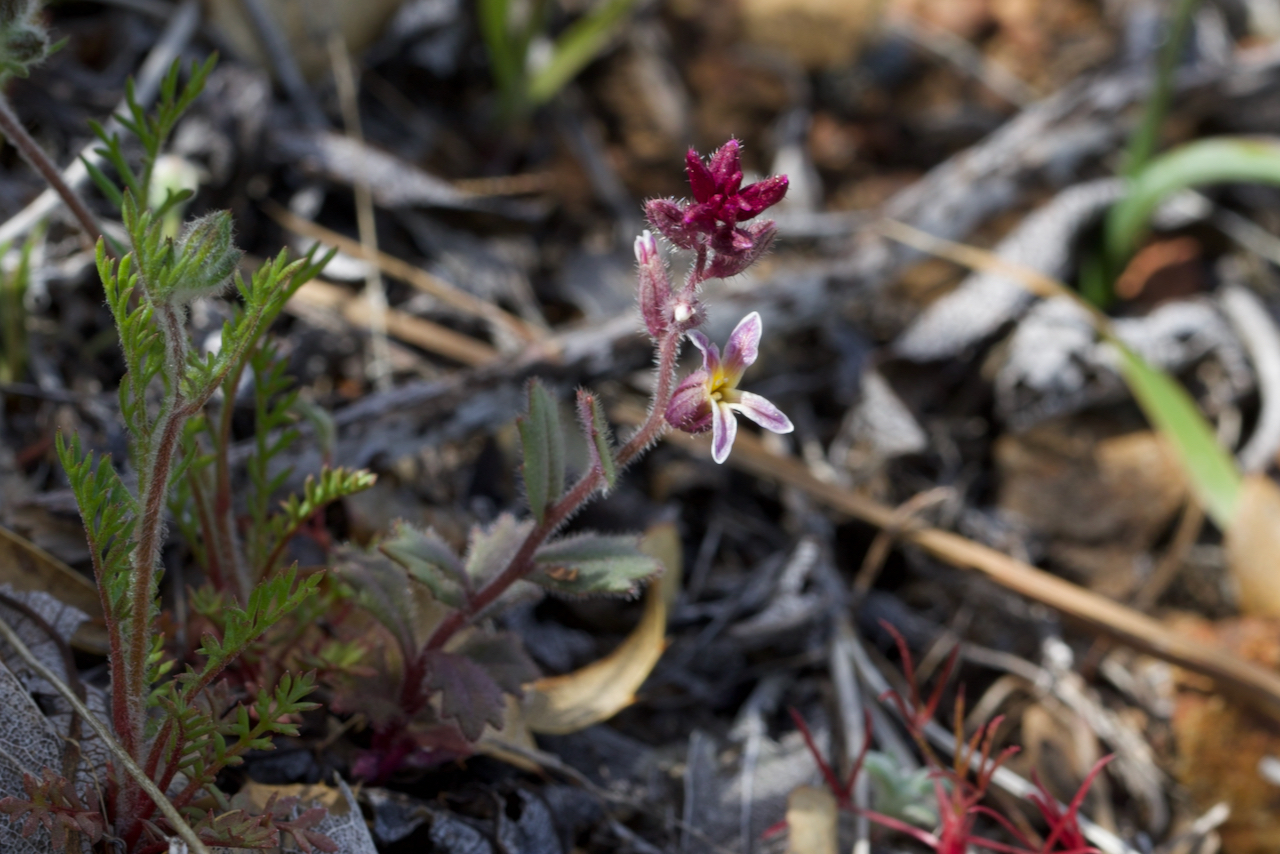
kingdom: Plantae
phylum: Tracheophyta
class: Magnoliopsida
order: Brassicales
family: Brassicaceae
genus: Streptanthus
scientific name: Streptanthus hispidus
